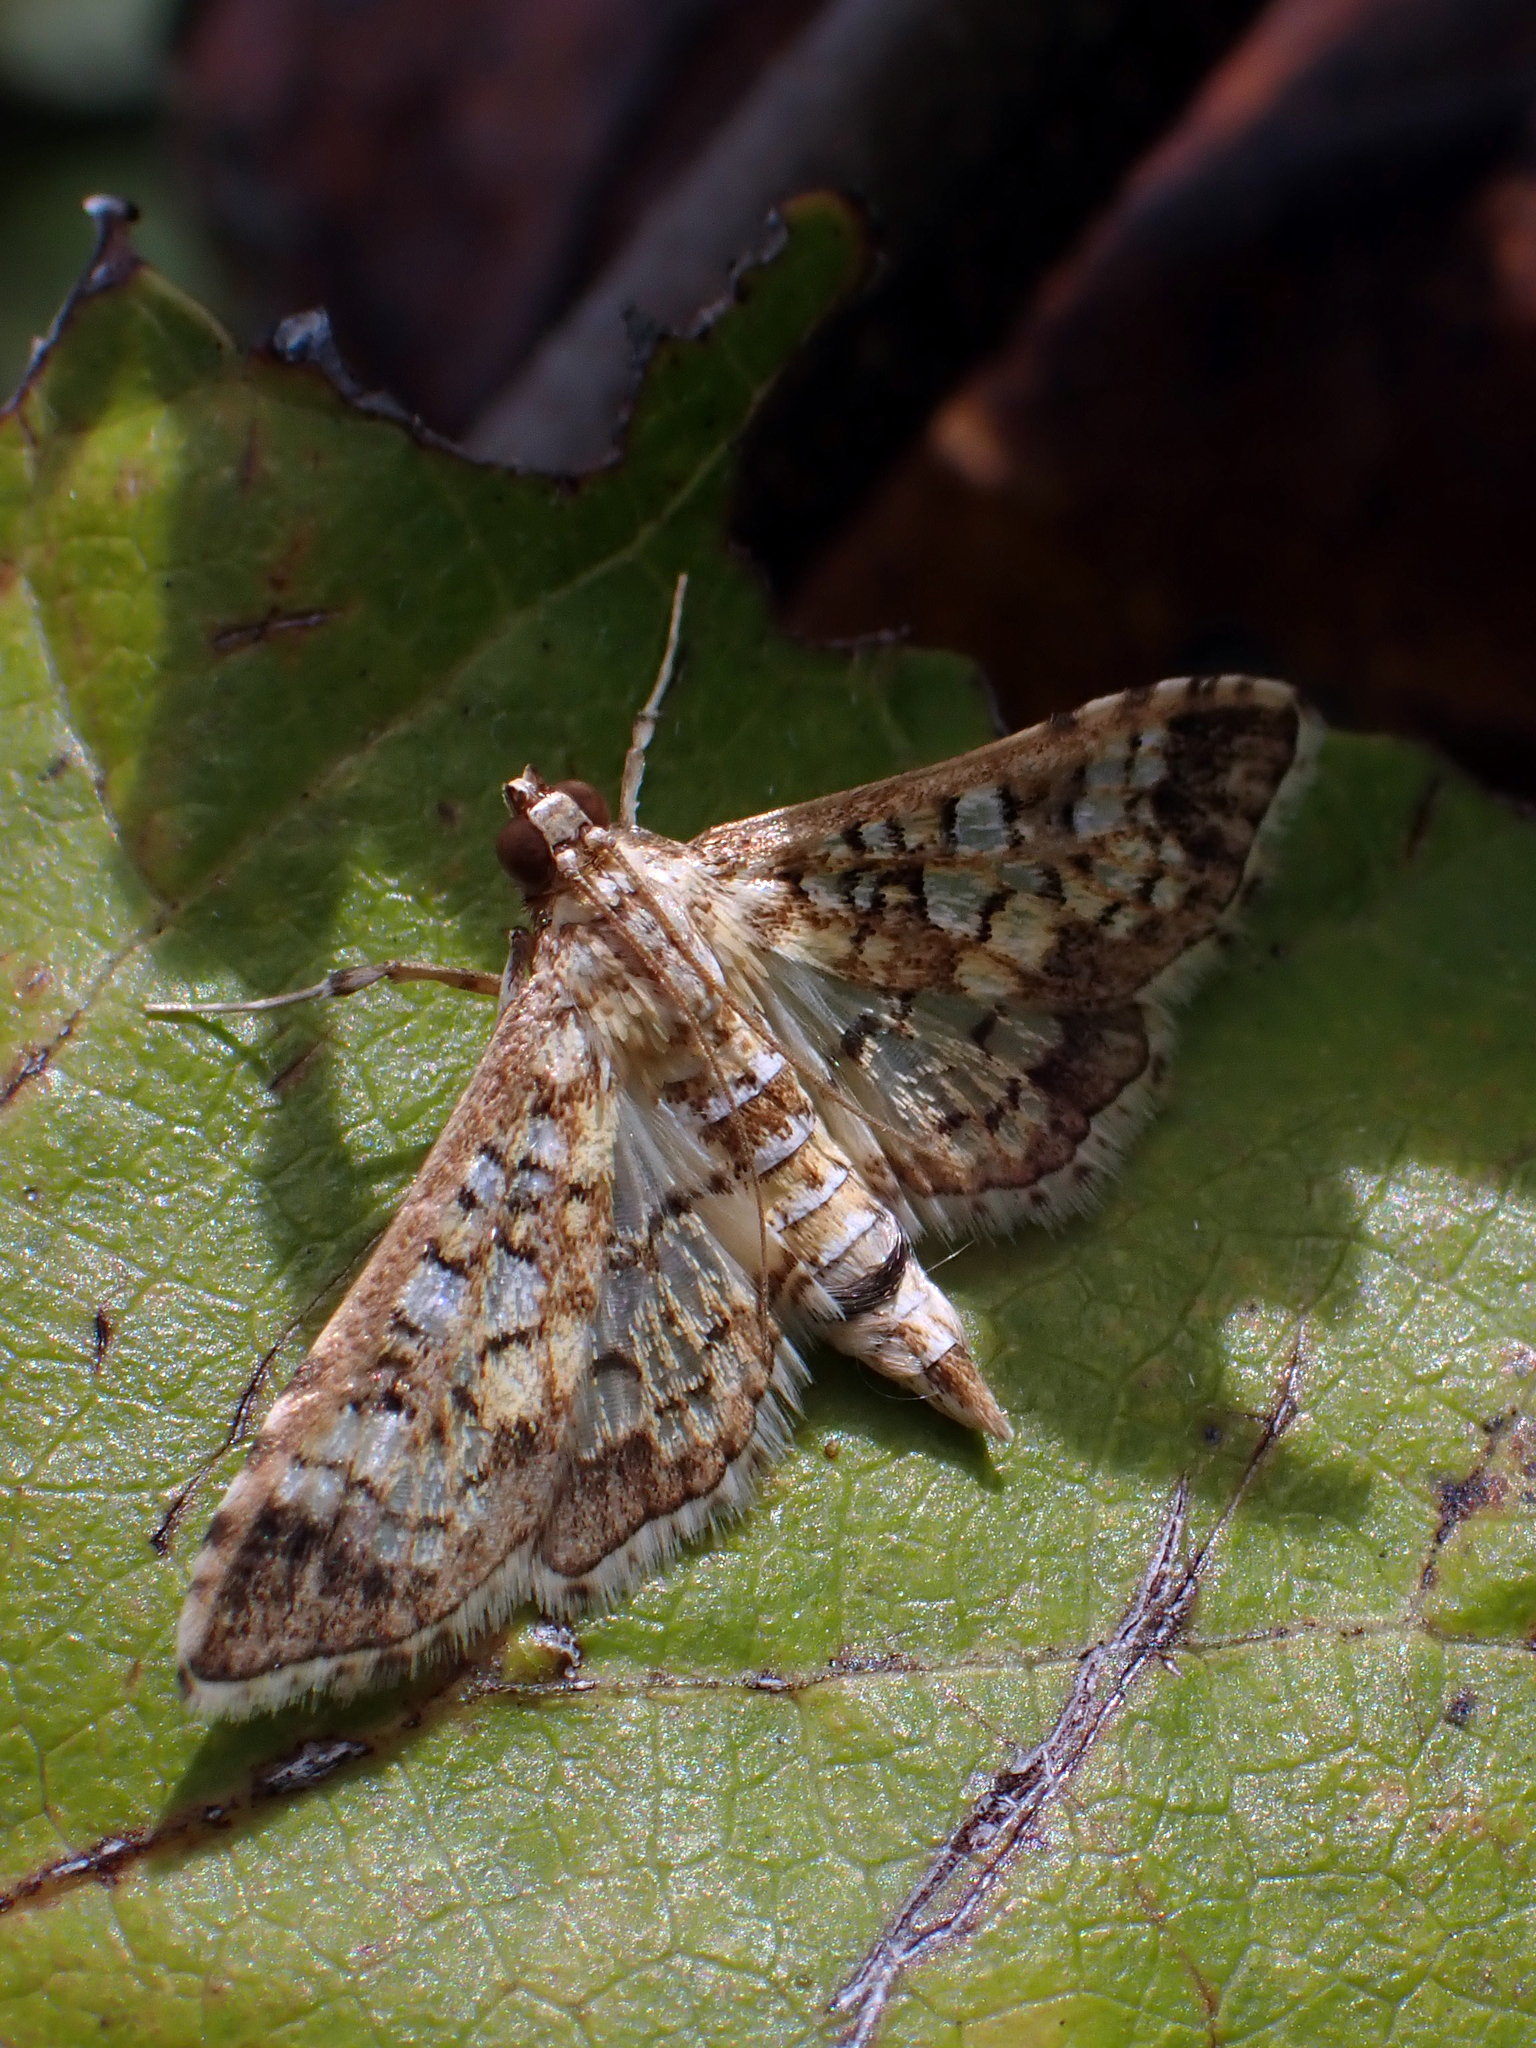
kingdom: Animalia
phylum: Arthropoda
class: Insecta
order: Lepidoptera
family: Crambidae
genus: Samea
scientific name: Samea multiplicalis
